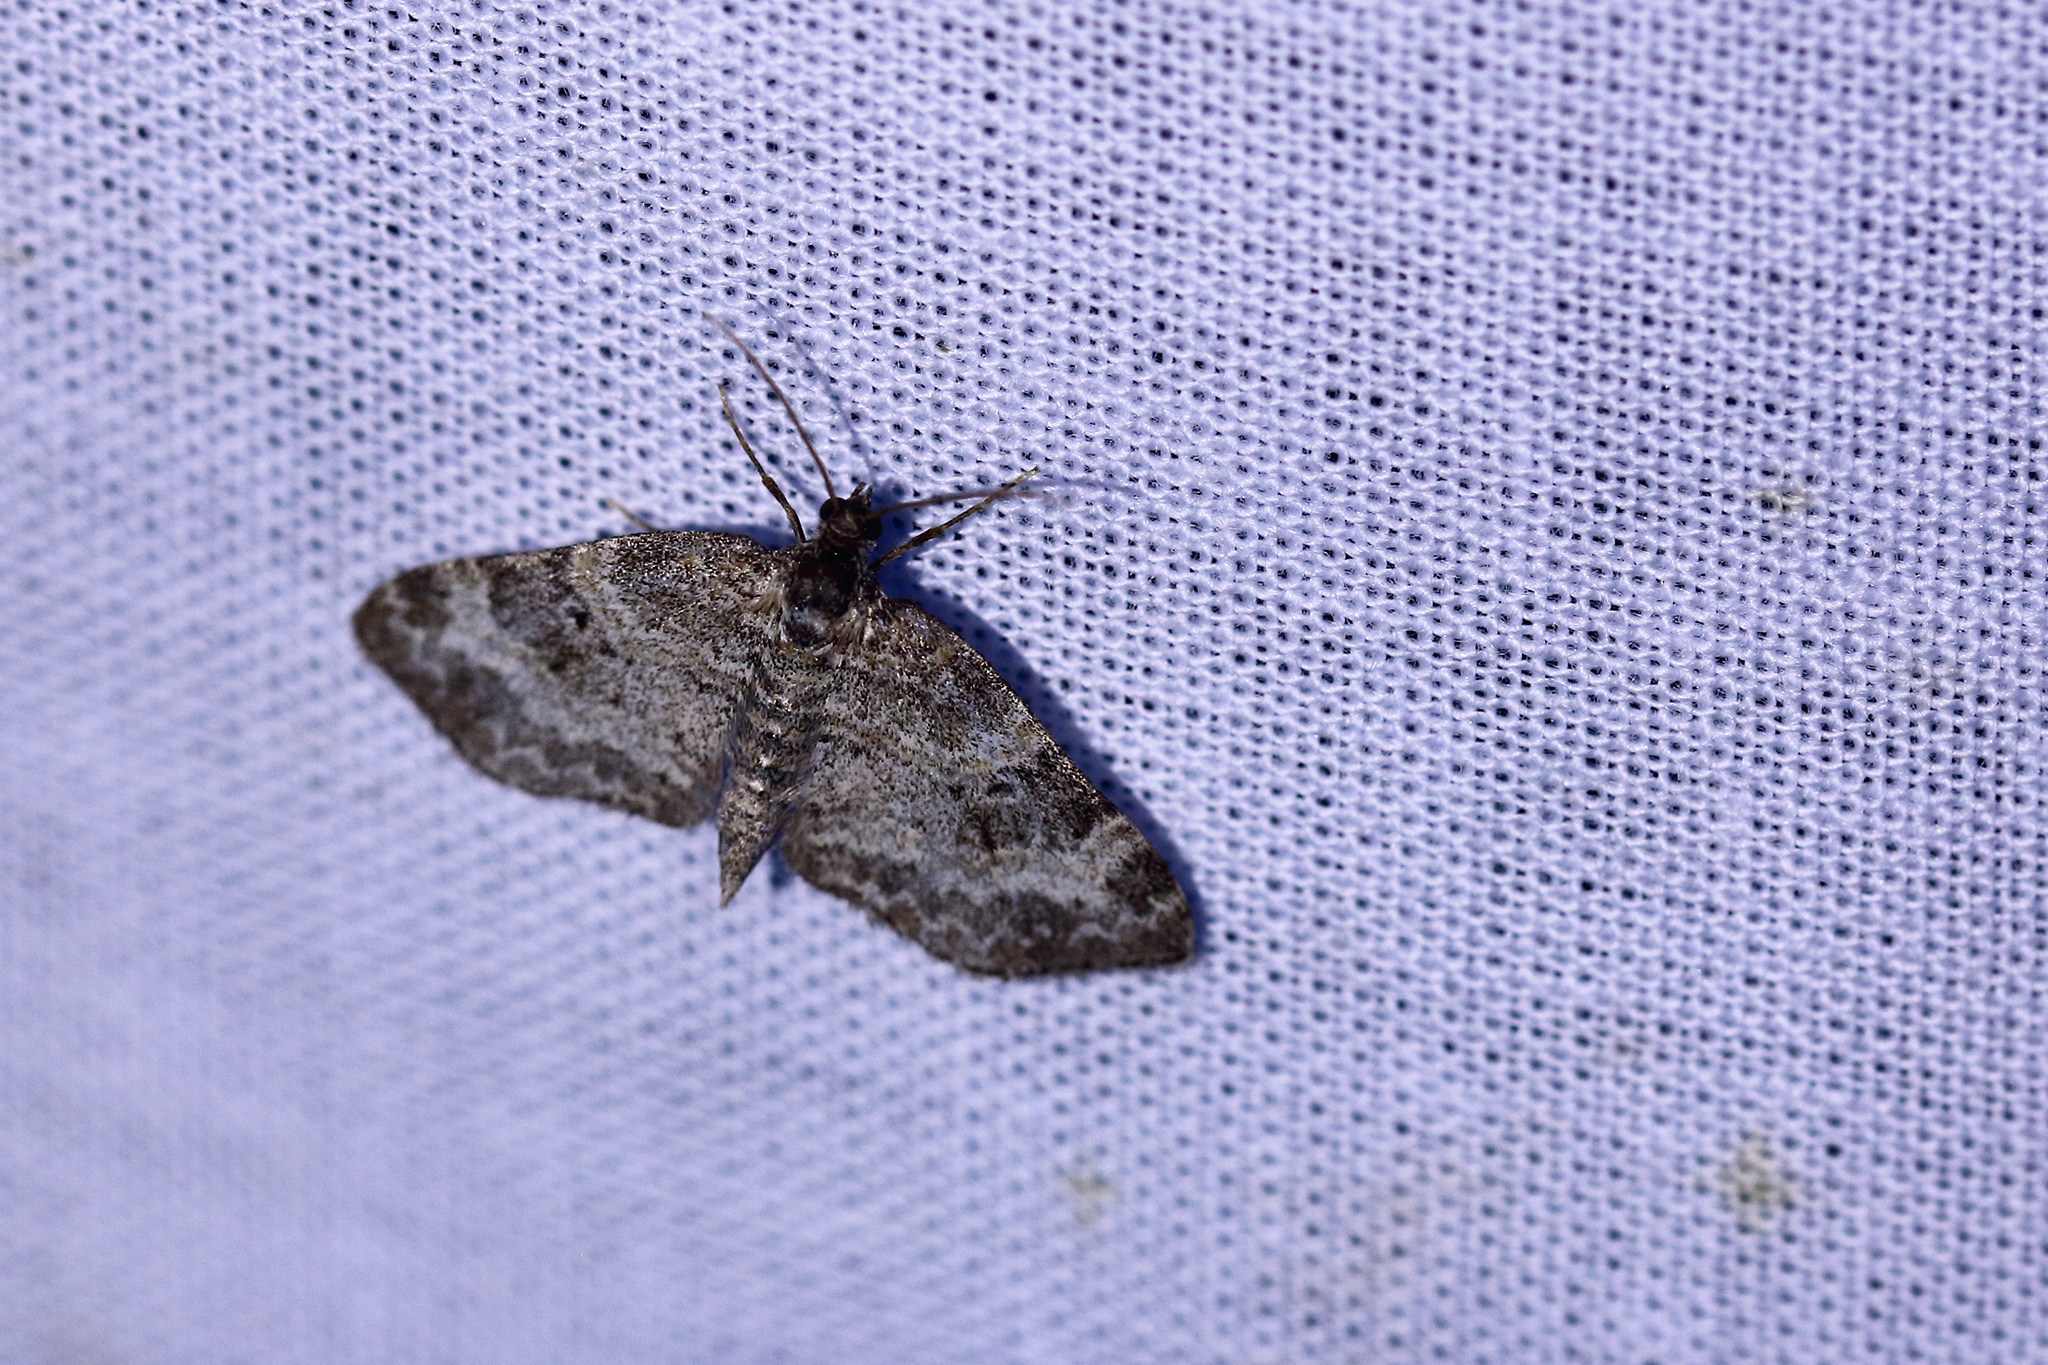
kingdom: Animalia
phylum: Arthropoda
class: Insecta
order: Lepidoptera
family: Geometridae
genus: Pterapherapteryx
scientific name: Pterapherapteryx sexalata
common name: Small seraphim
